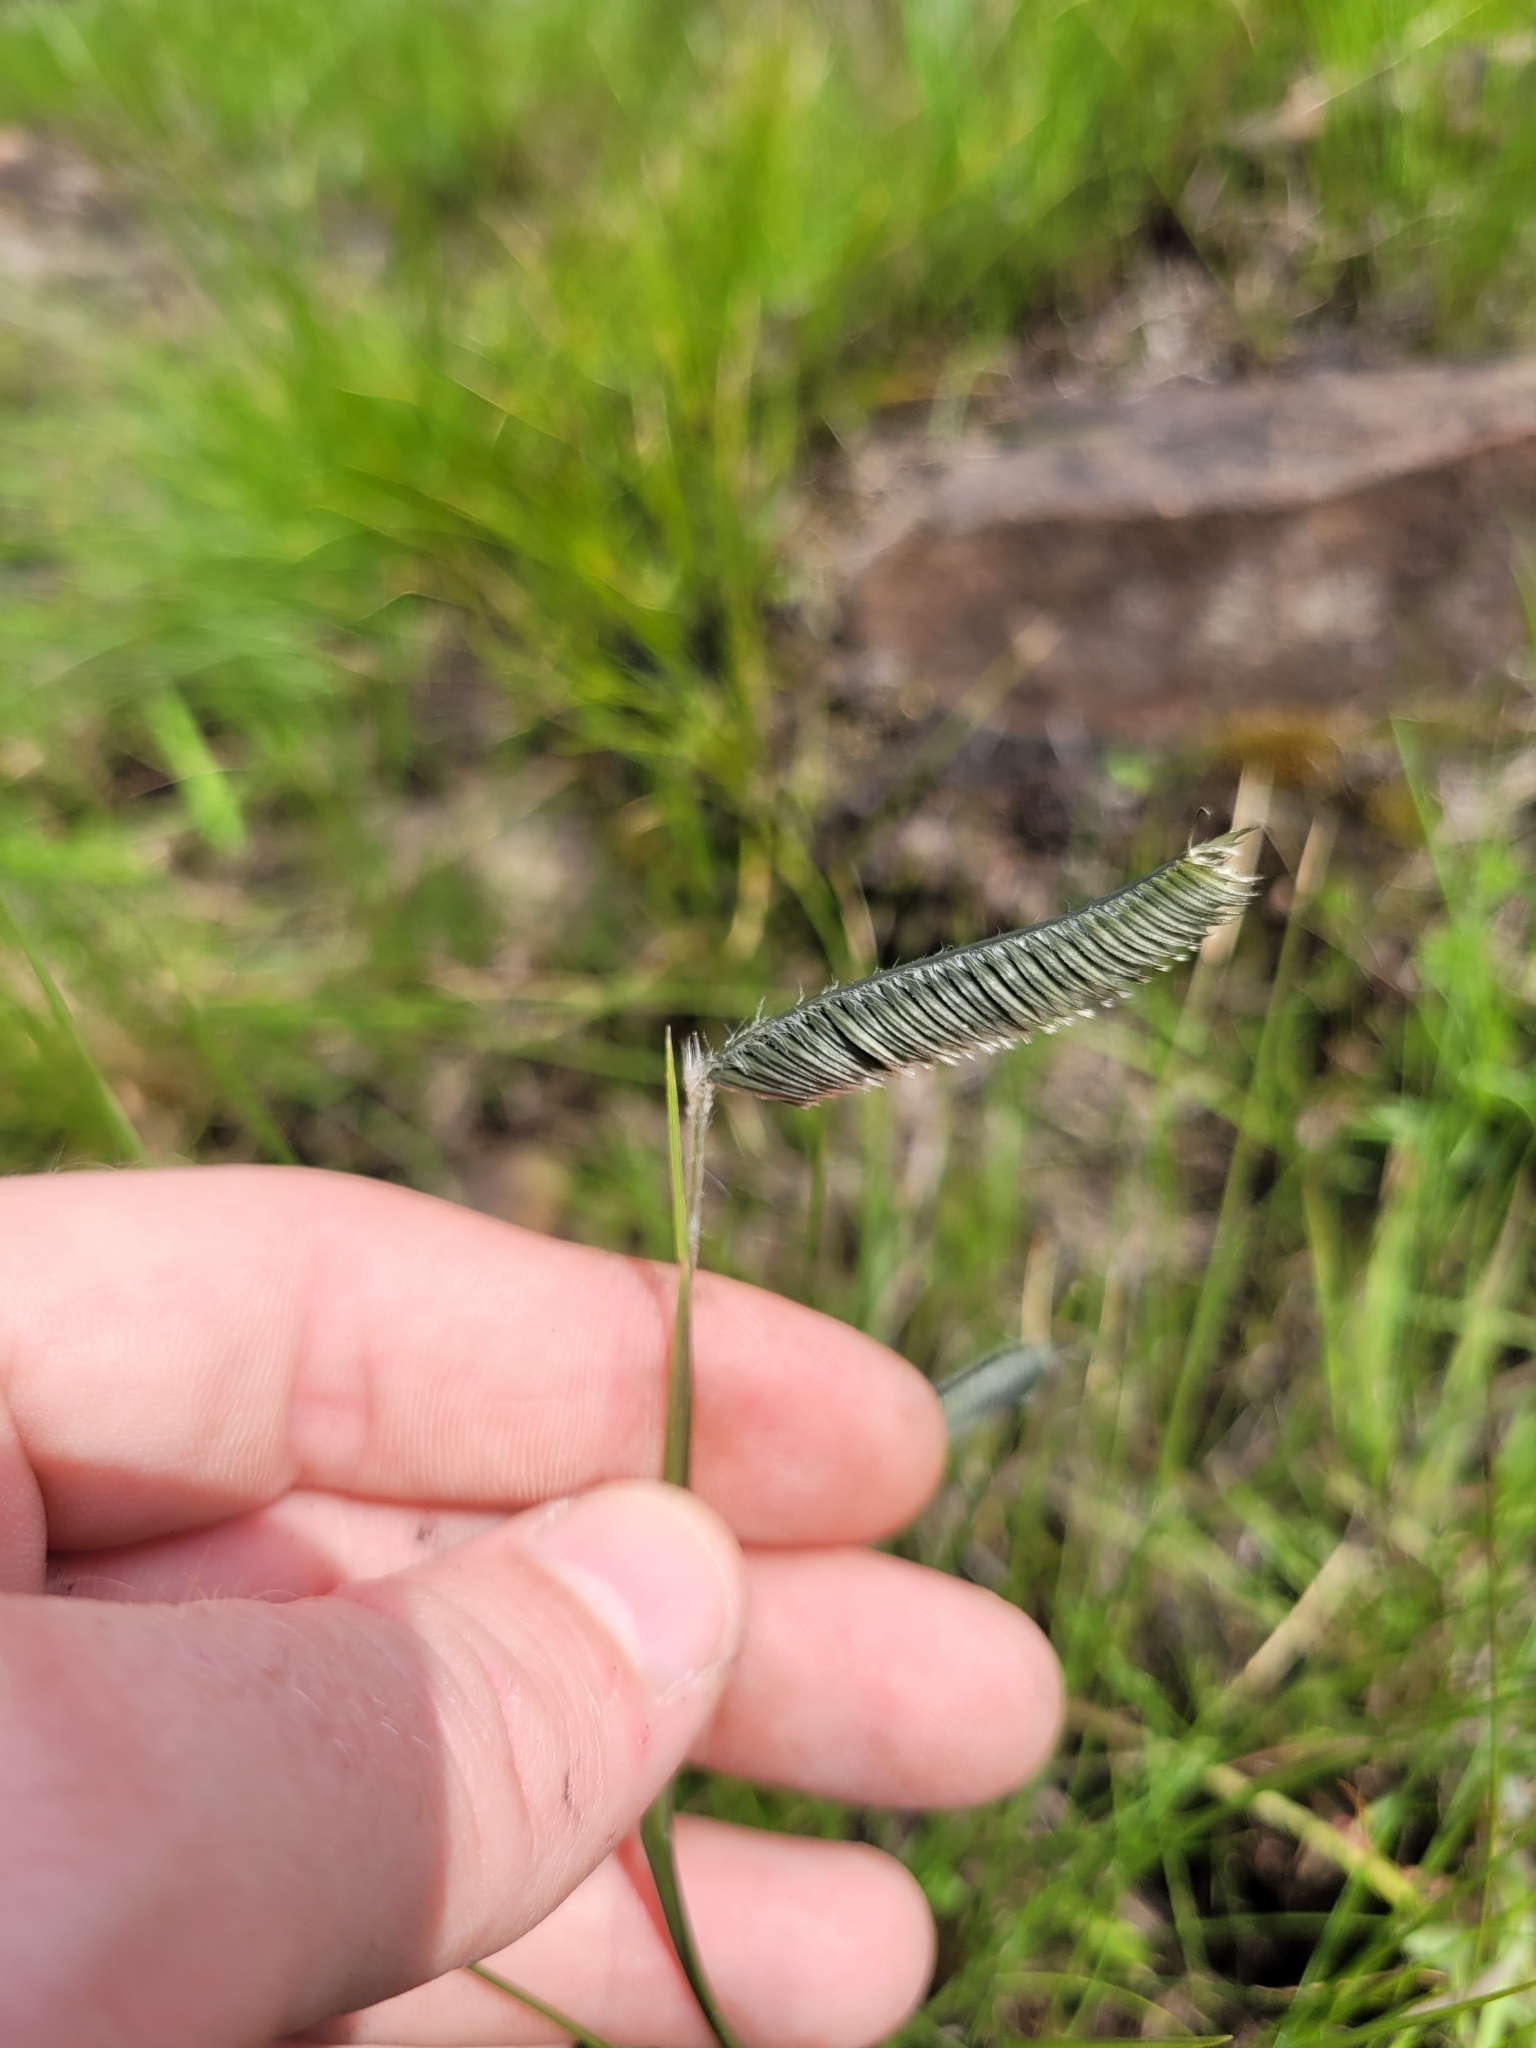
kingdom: Plantae
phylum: Tracheophyta
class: Liliopsida
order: Poales
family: Poaceae
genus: Harpochloa
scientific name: Harpochloa falx
